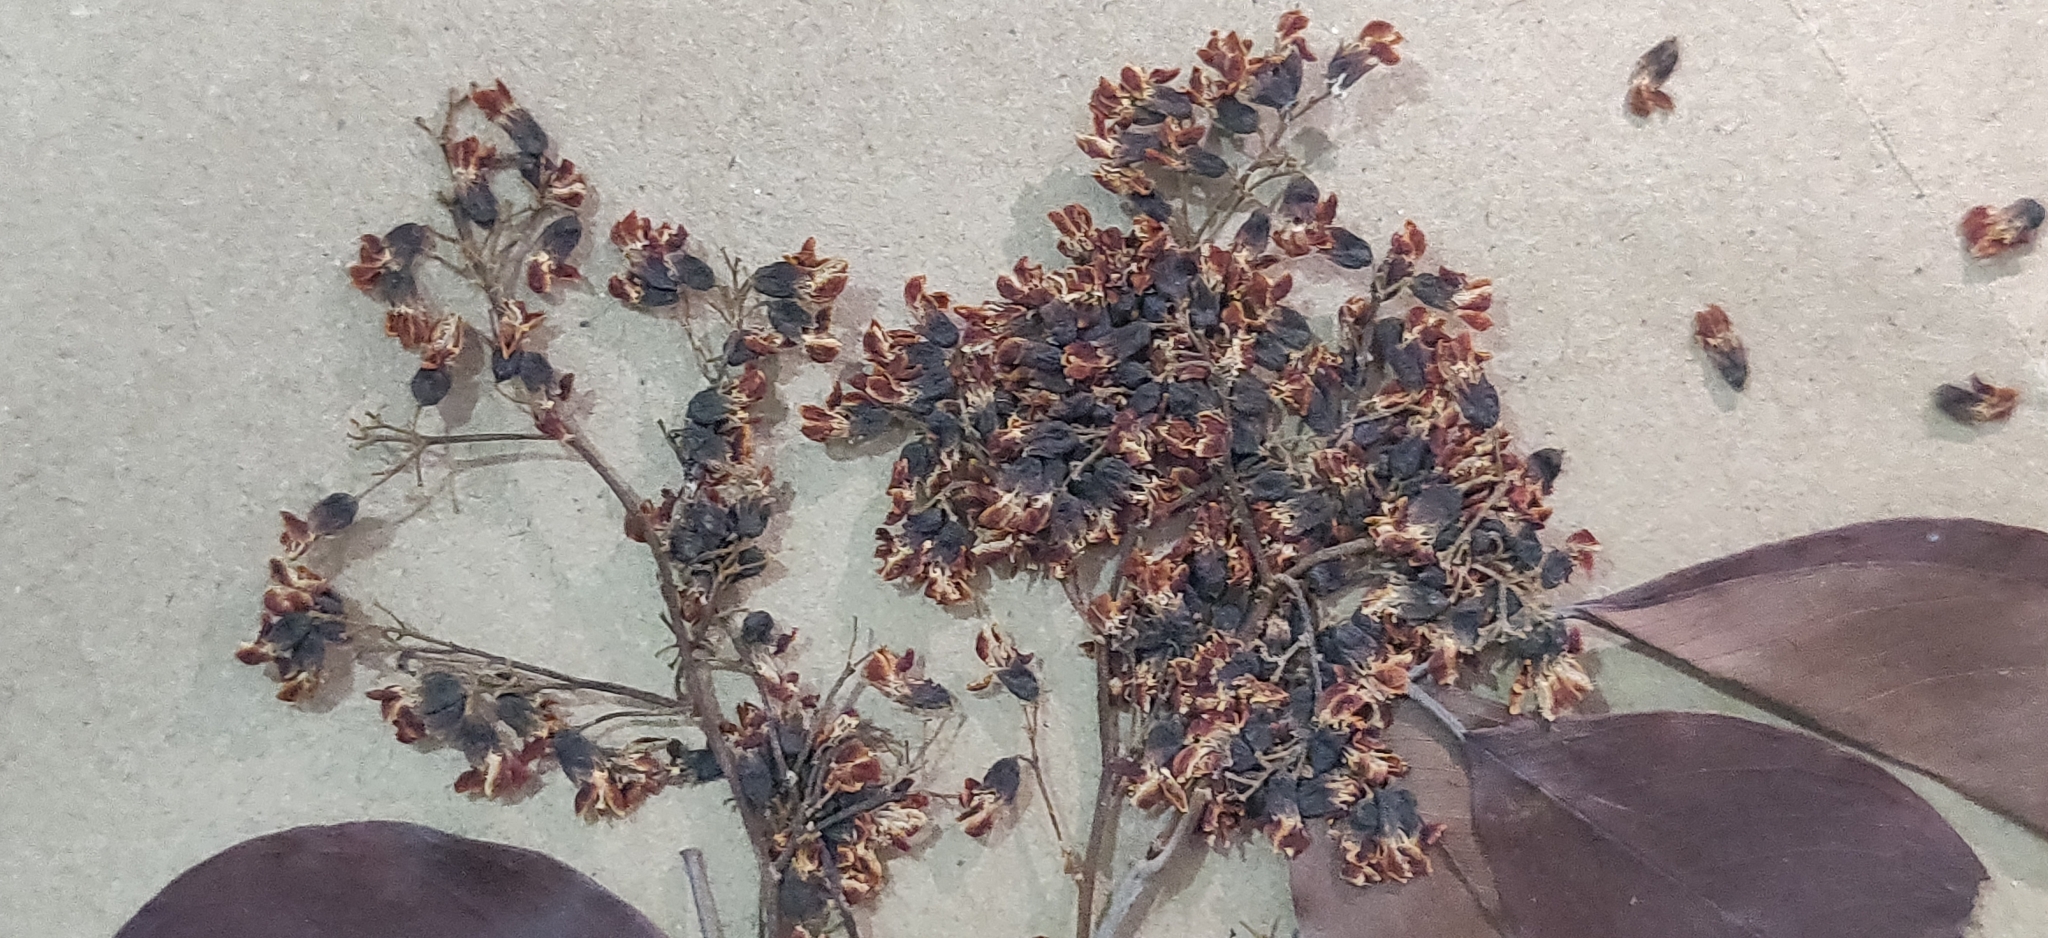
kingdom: Plantae
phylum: Tracheophyta
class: Magnoliopsida
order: Fabales
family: Fabaceae
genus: Pterocarpus
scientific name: Pterocarpus marsupium
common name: East indian/malabar kino
